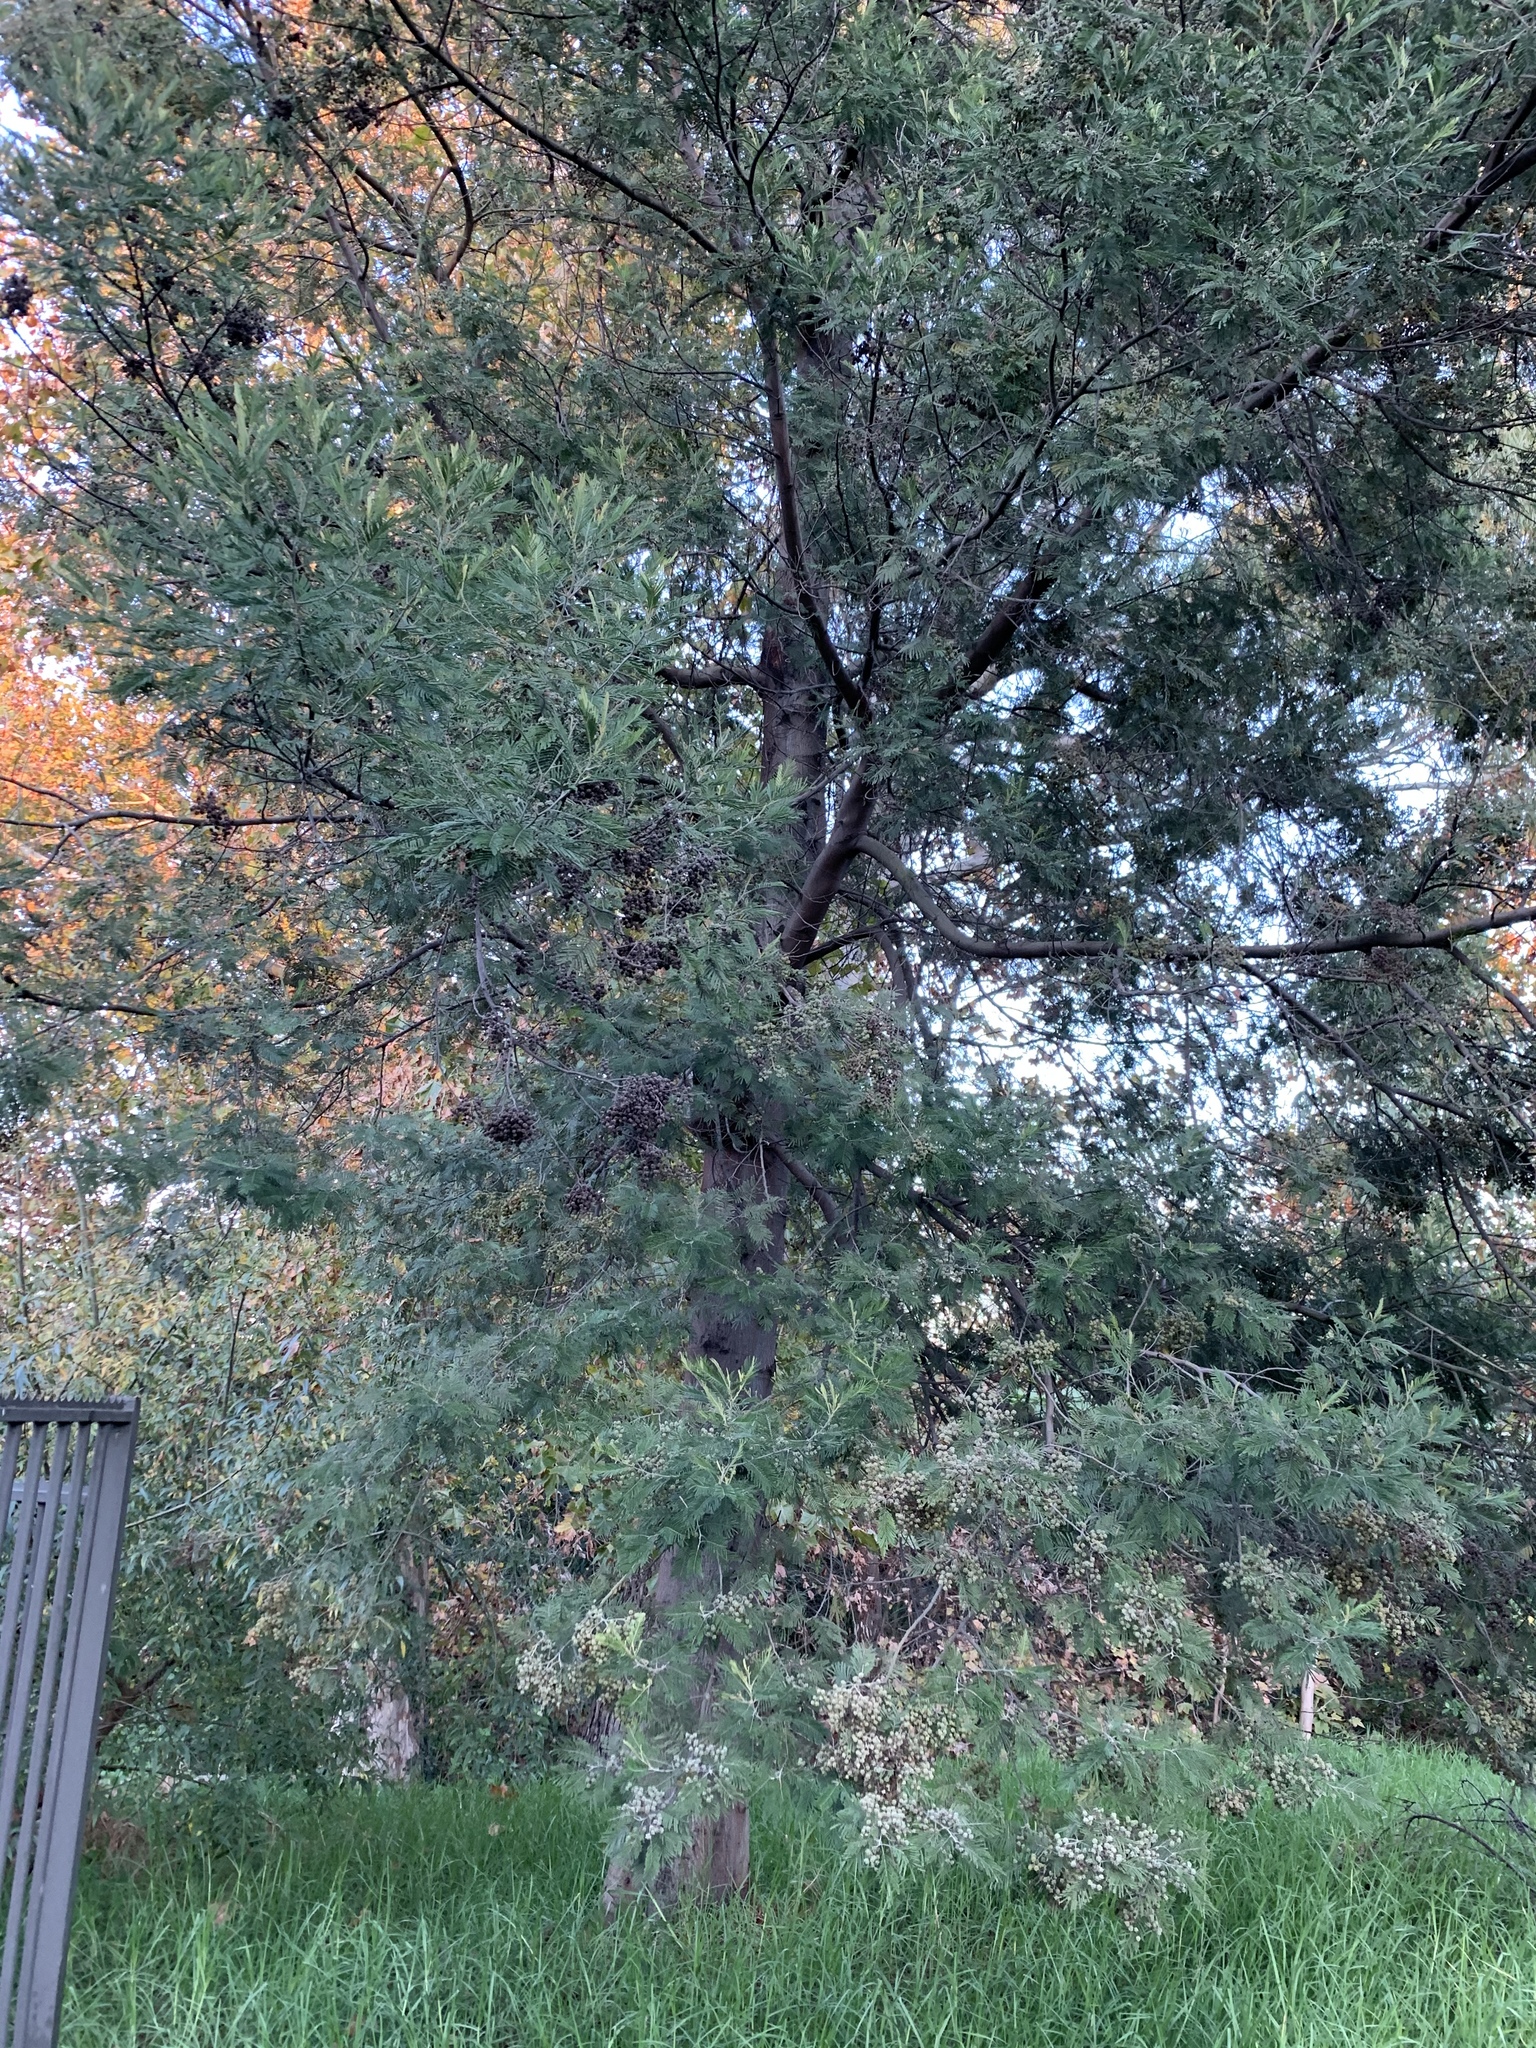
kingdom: Plantae
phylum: Tracheophyta
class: Magnoliopsida
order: Fabales
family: Fabaceae
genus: Acacia
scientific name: Acacia mearnsii
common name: Black wattle
